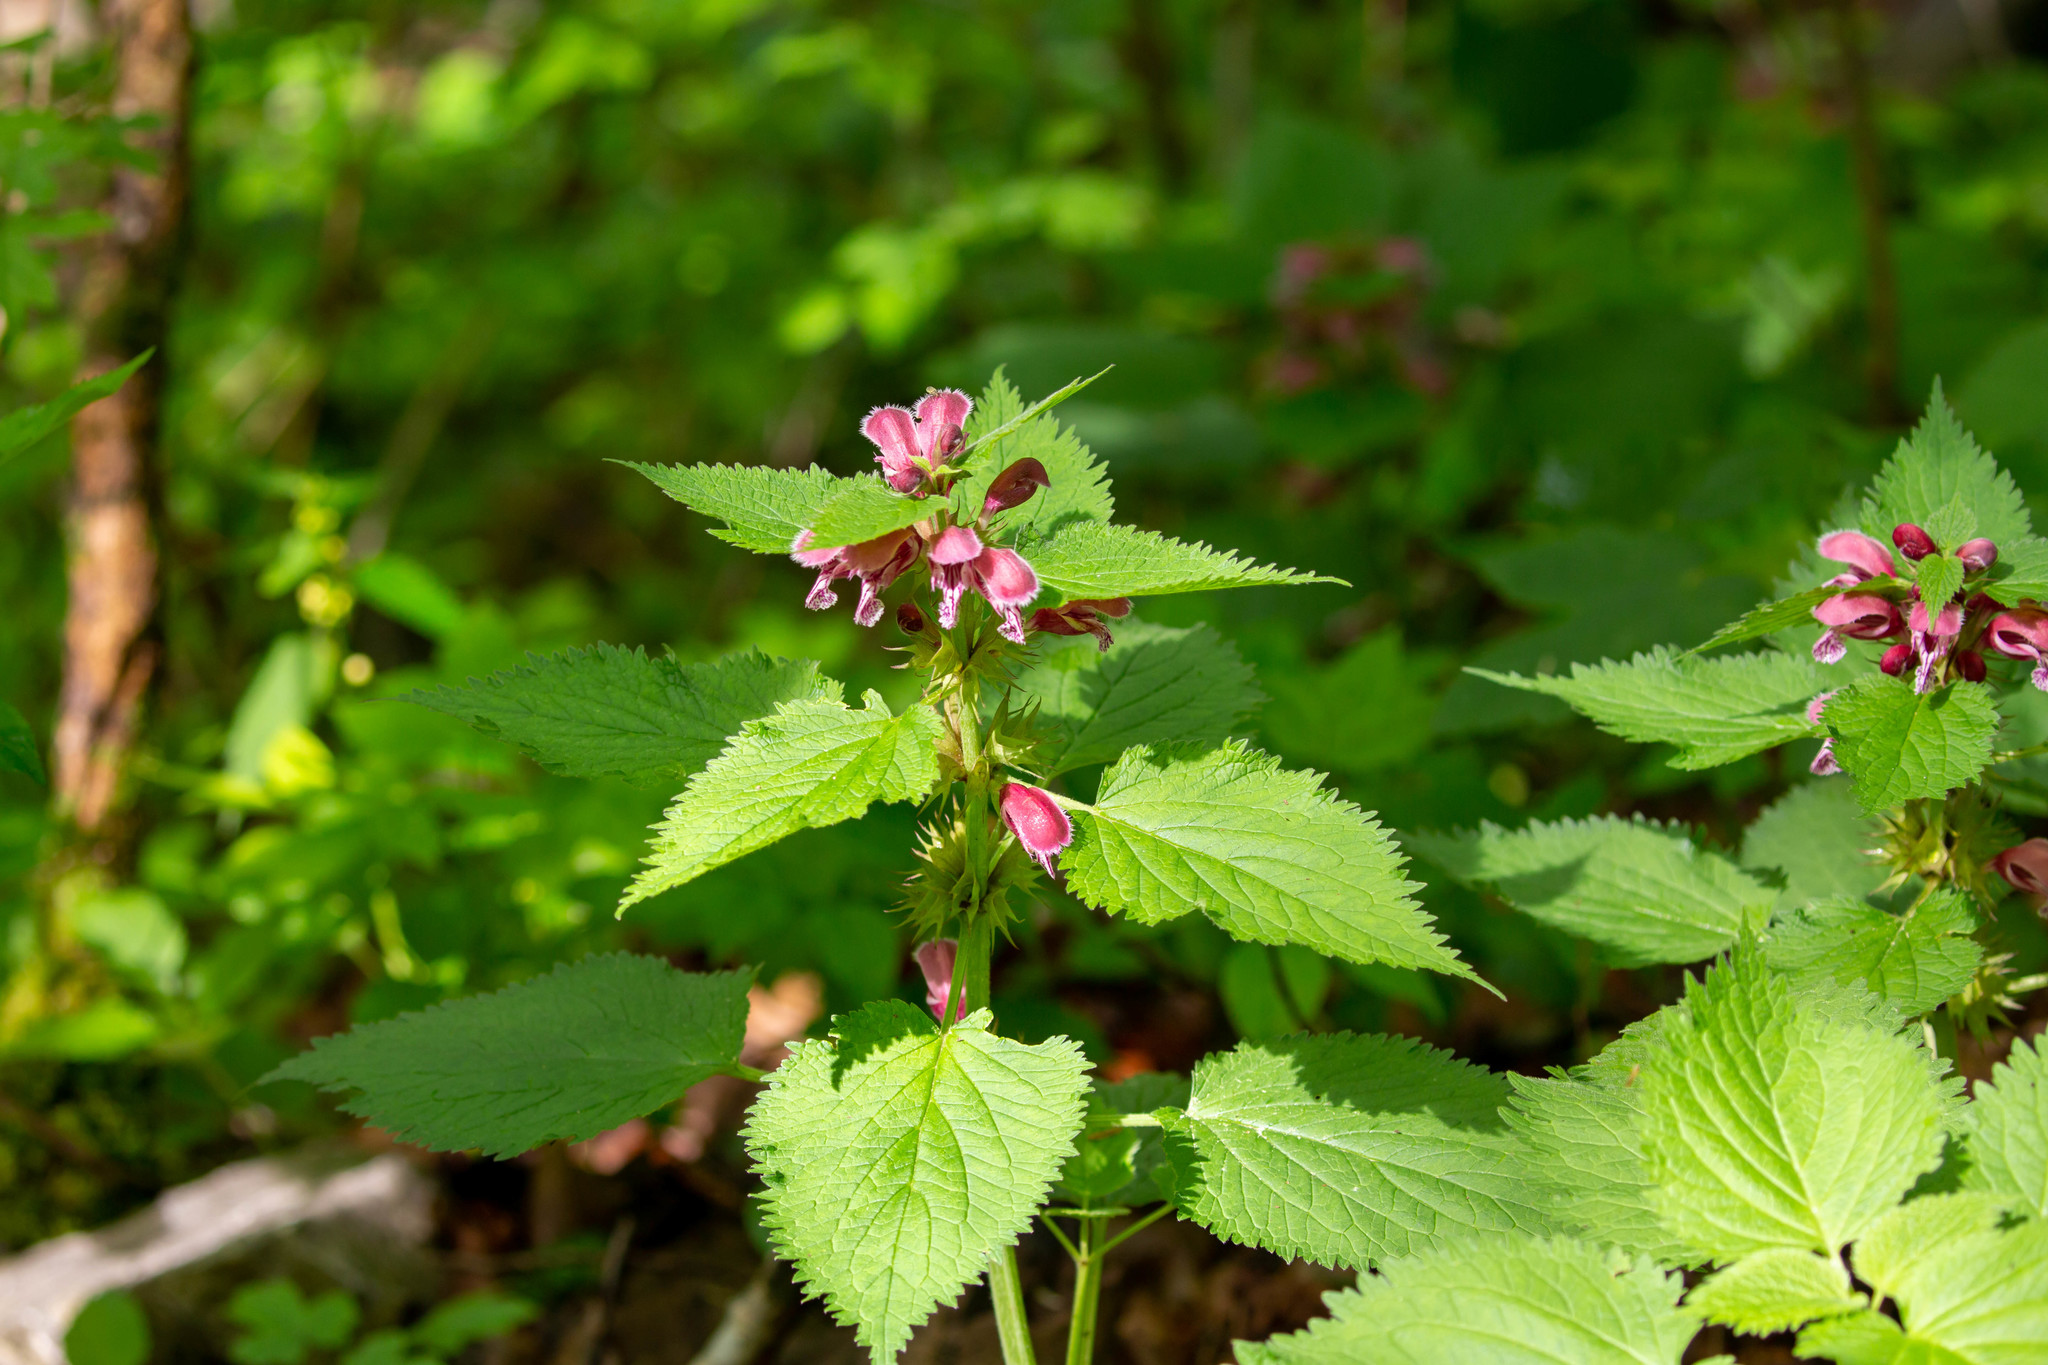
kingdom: Plantae
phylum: Tracheophyta
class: Magnoliopsida
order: Lamiales
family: Lamiaceae
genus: Lamium
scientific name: Lamium orvala
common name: Balm-leaved archangel
